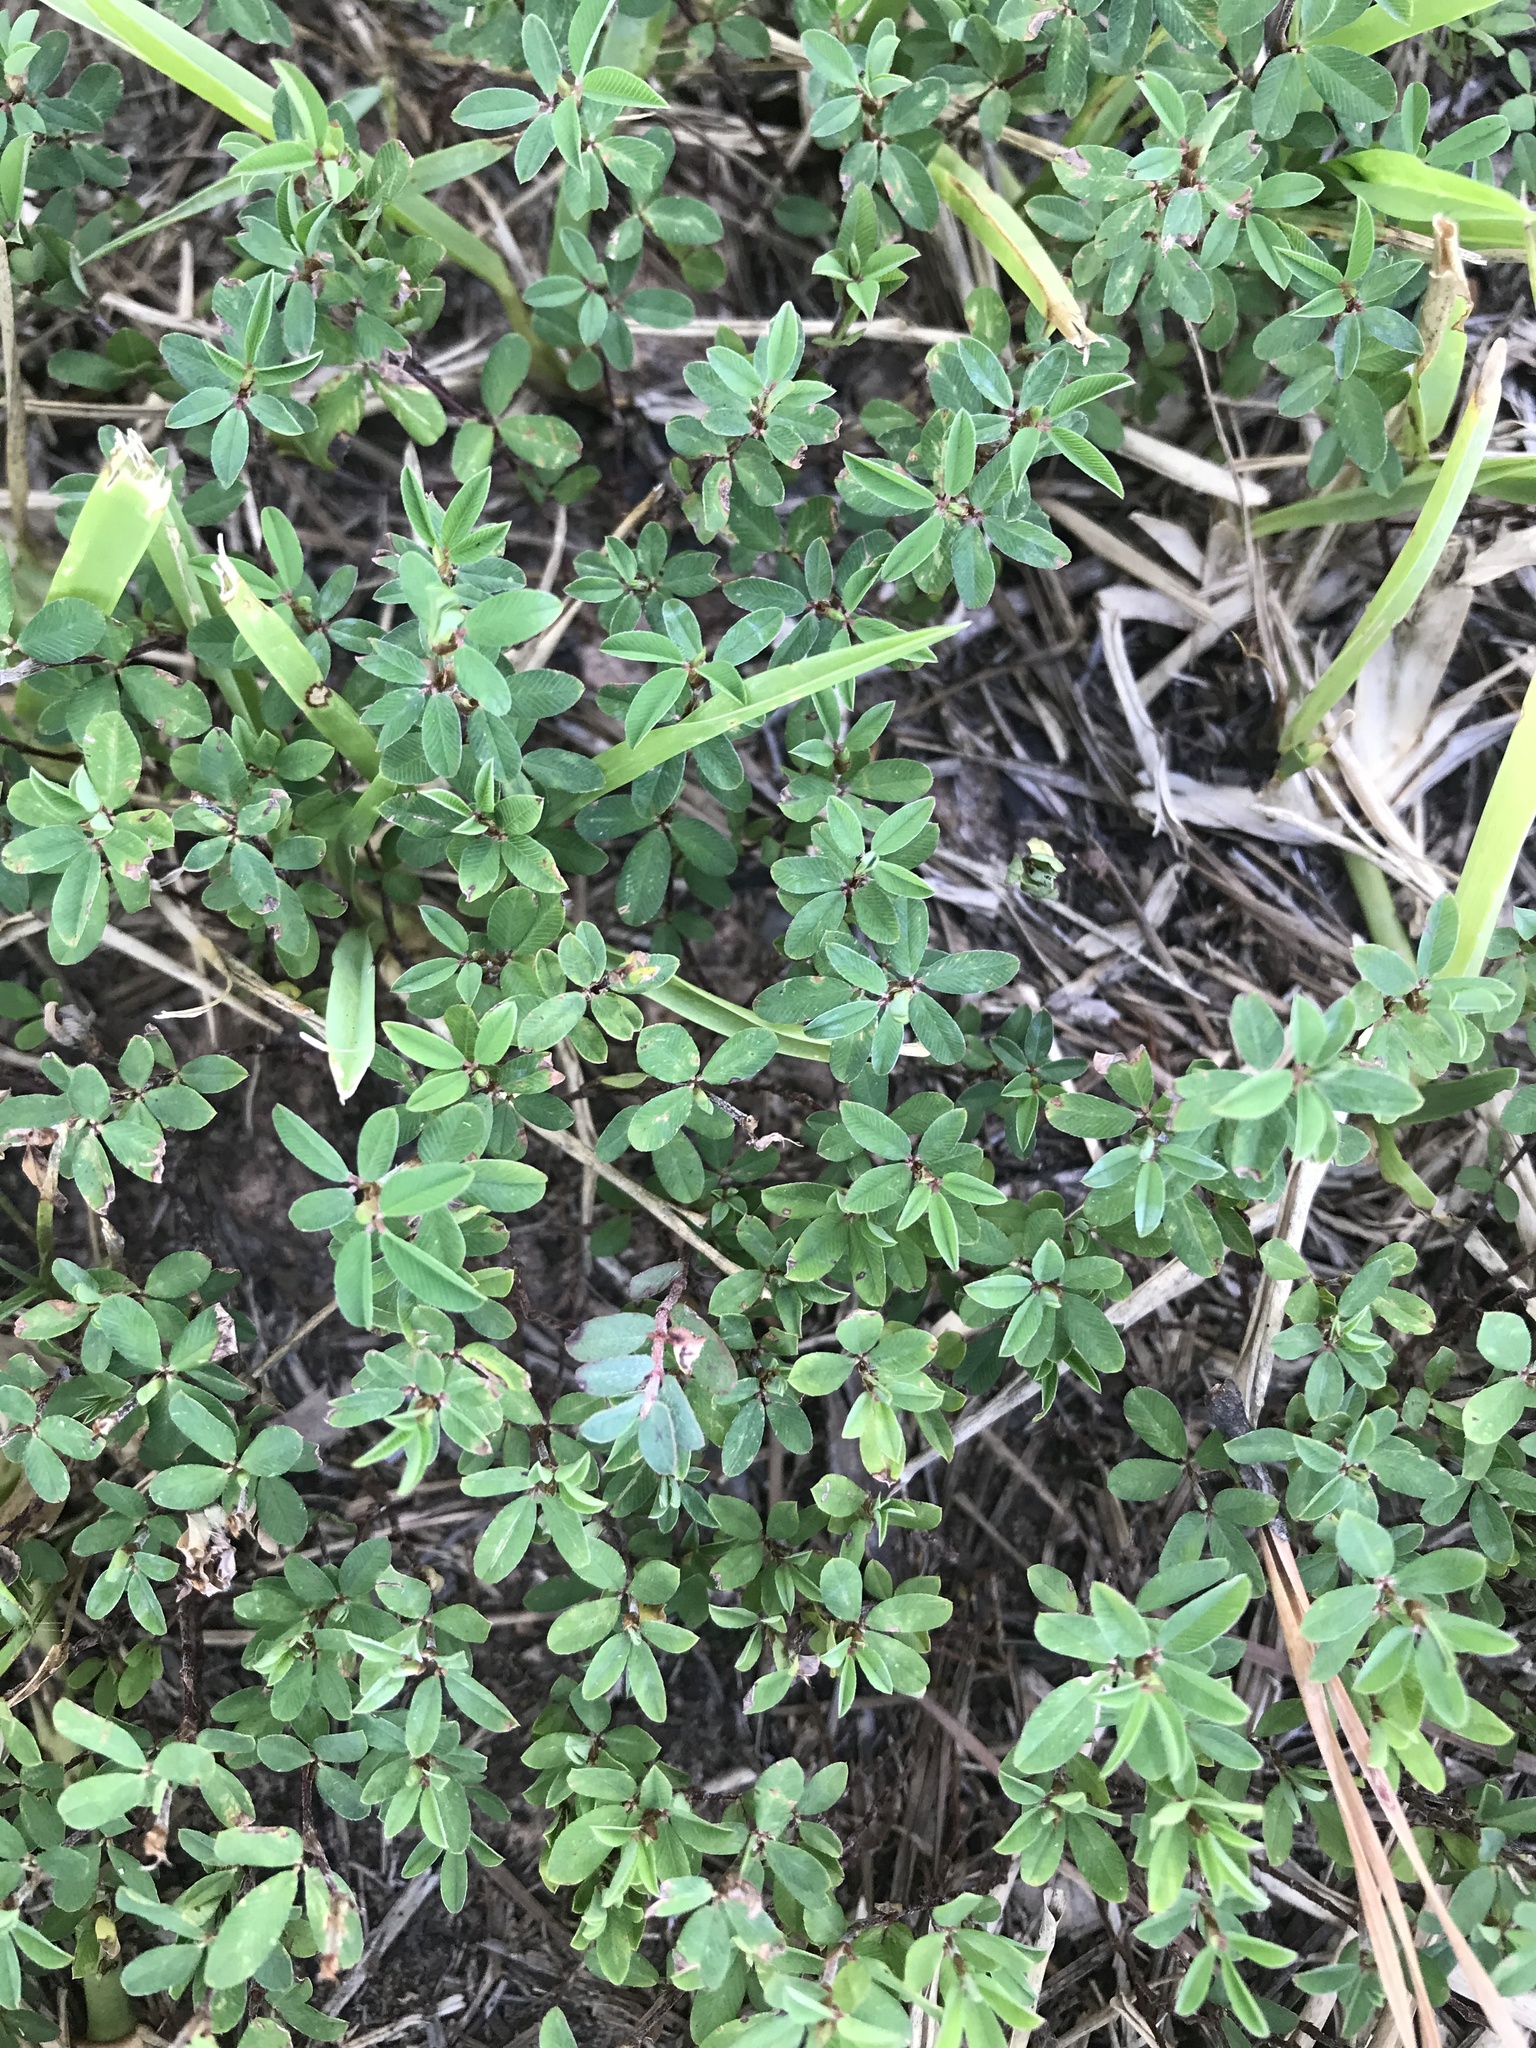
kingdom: Plantae
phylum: Tracheophyta
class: Magnoliopsida
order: Fabales
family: Fabaceae
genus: Kummerowia
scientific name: Kummerowia striata
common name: Japanese clover
